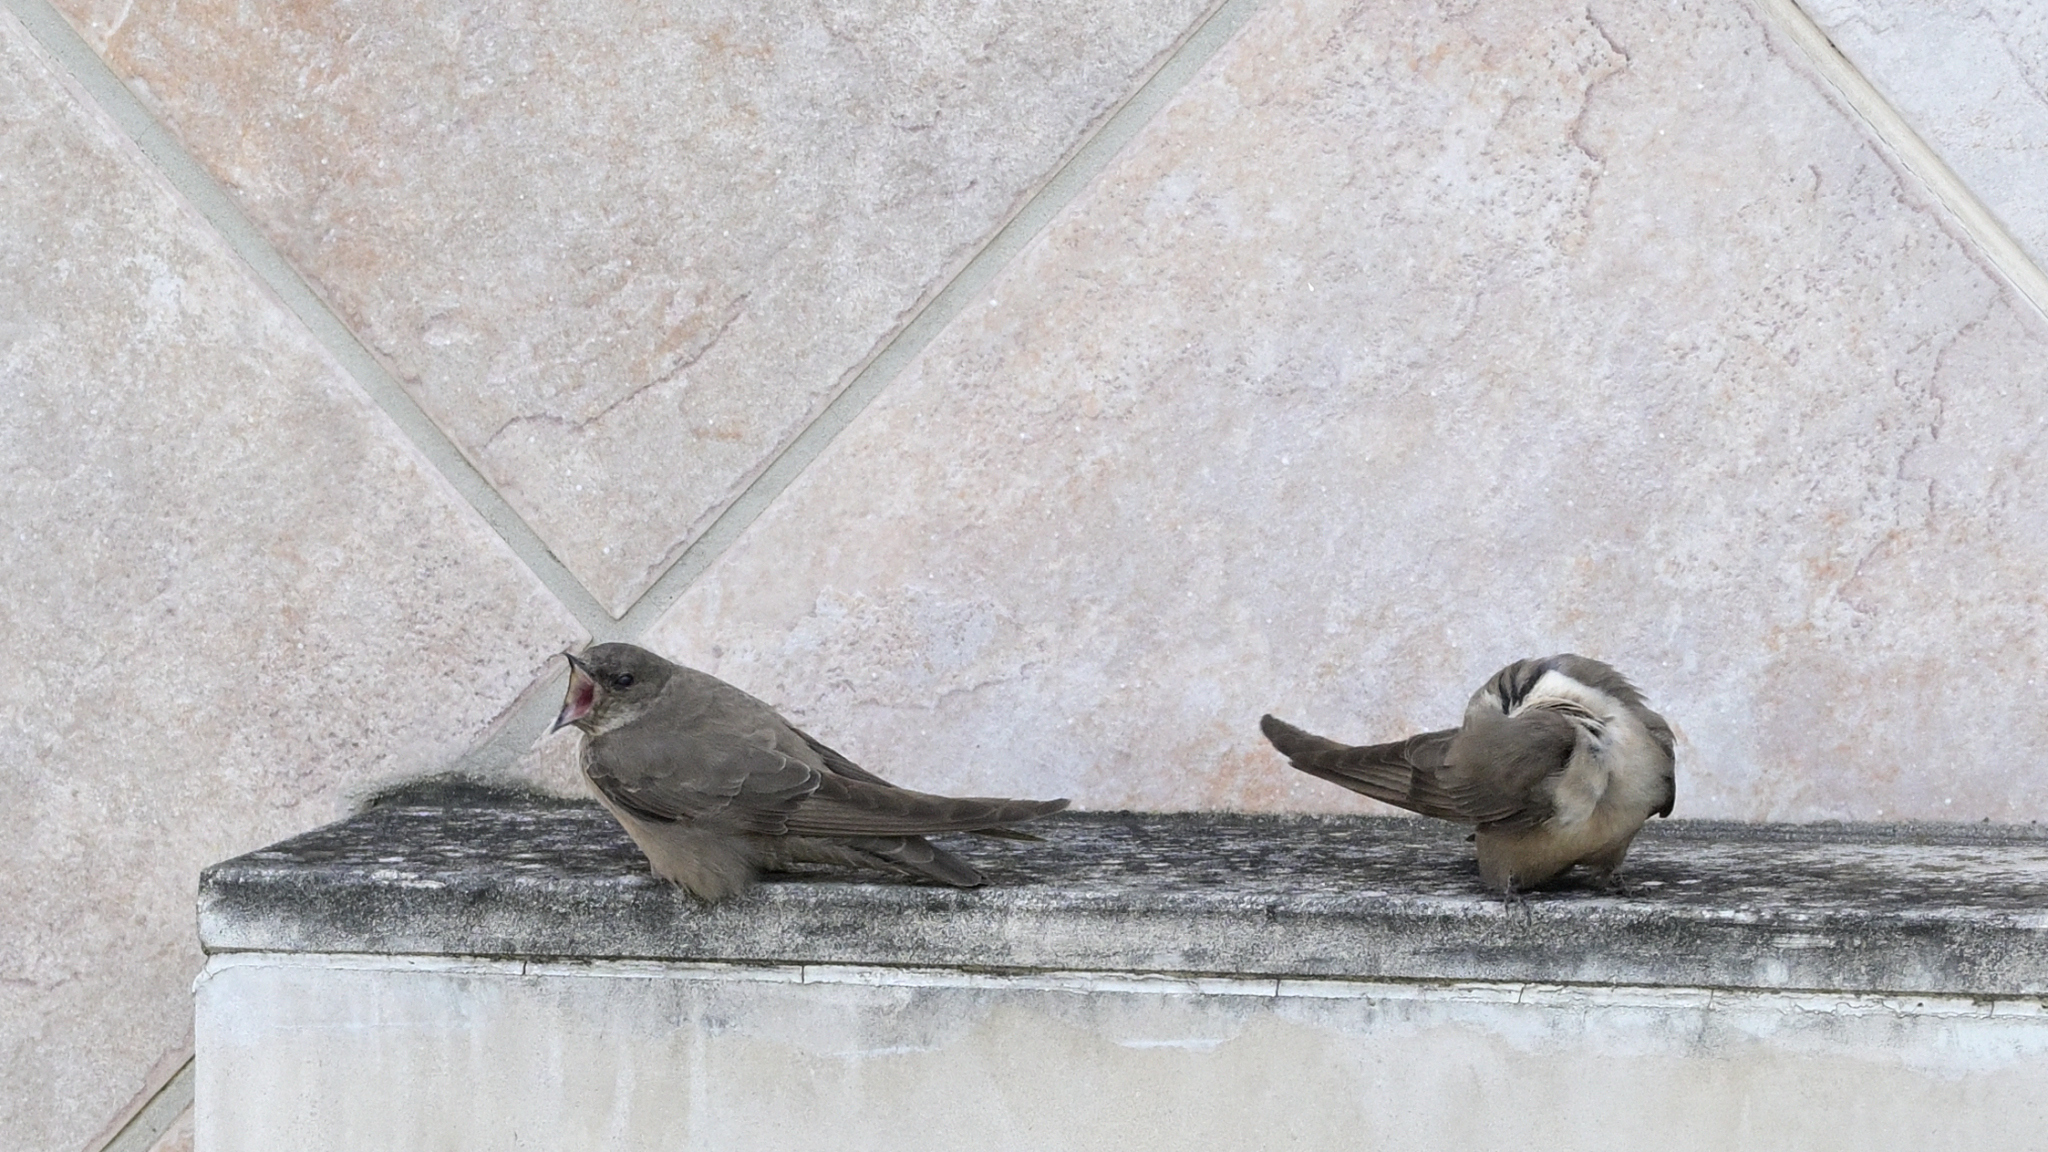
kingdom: Animalia
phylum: Chordata
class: Aves
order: Passeriformes
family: Hirundinidae
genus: Ptyonoprogne
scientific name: Ptyonoprogne rupestris
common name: Eurasian crag martin
